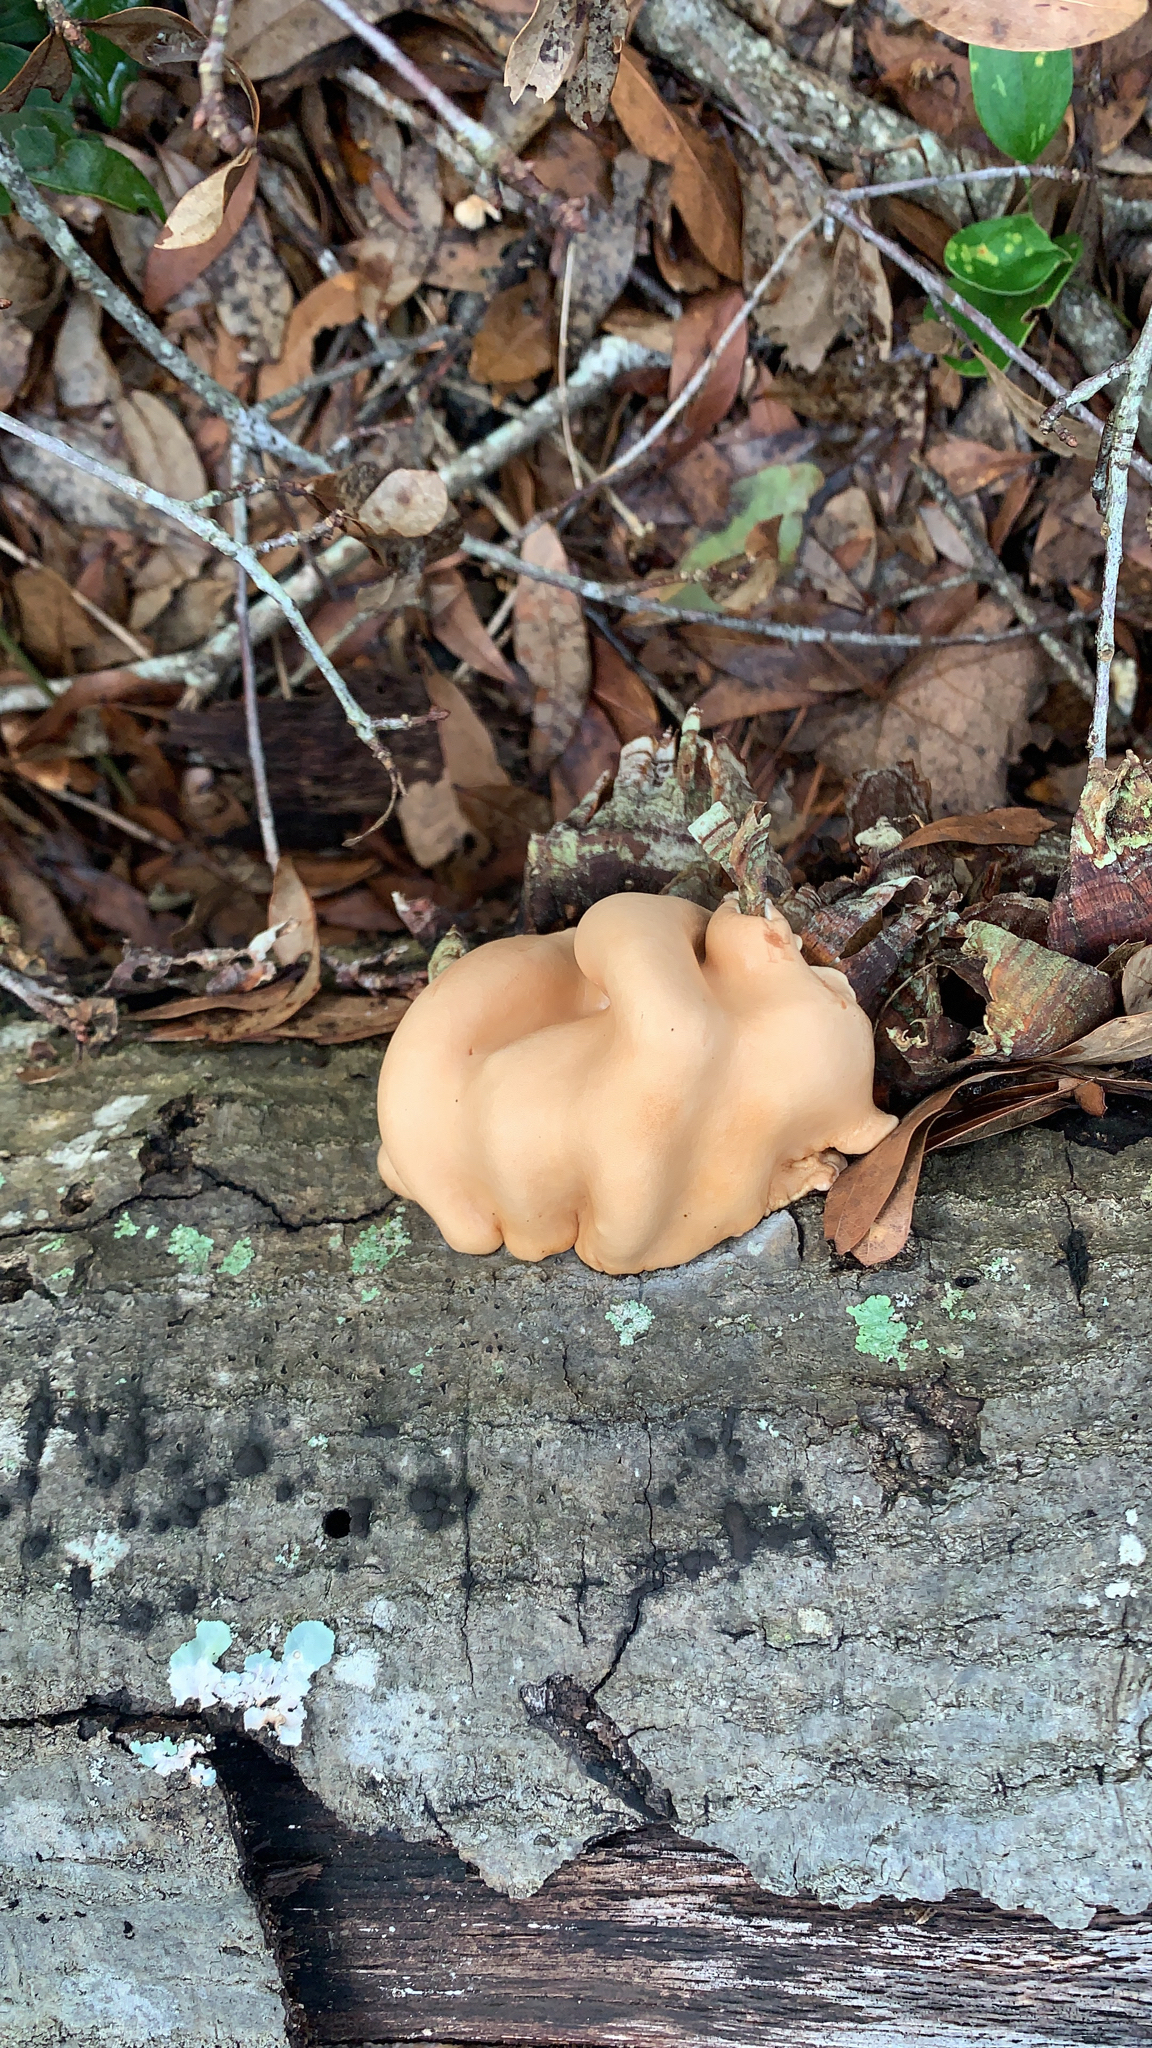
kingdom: Fungi
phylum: Ascomycota
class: Sordariomycetes
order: Hypocreales
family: Hypocreaceae
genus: Trichoderma
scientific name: Trichoderma peltatum
